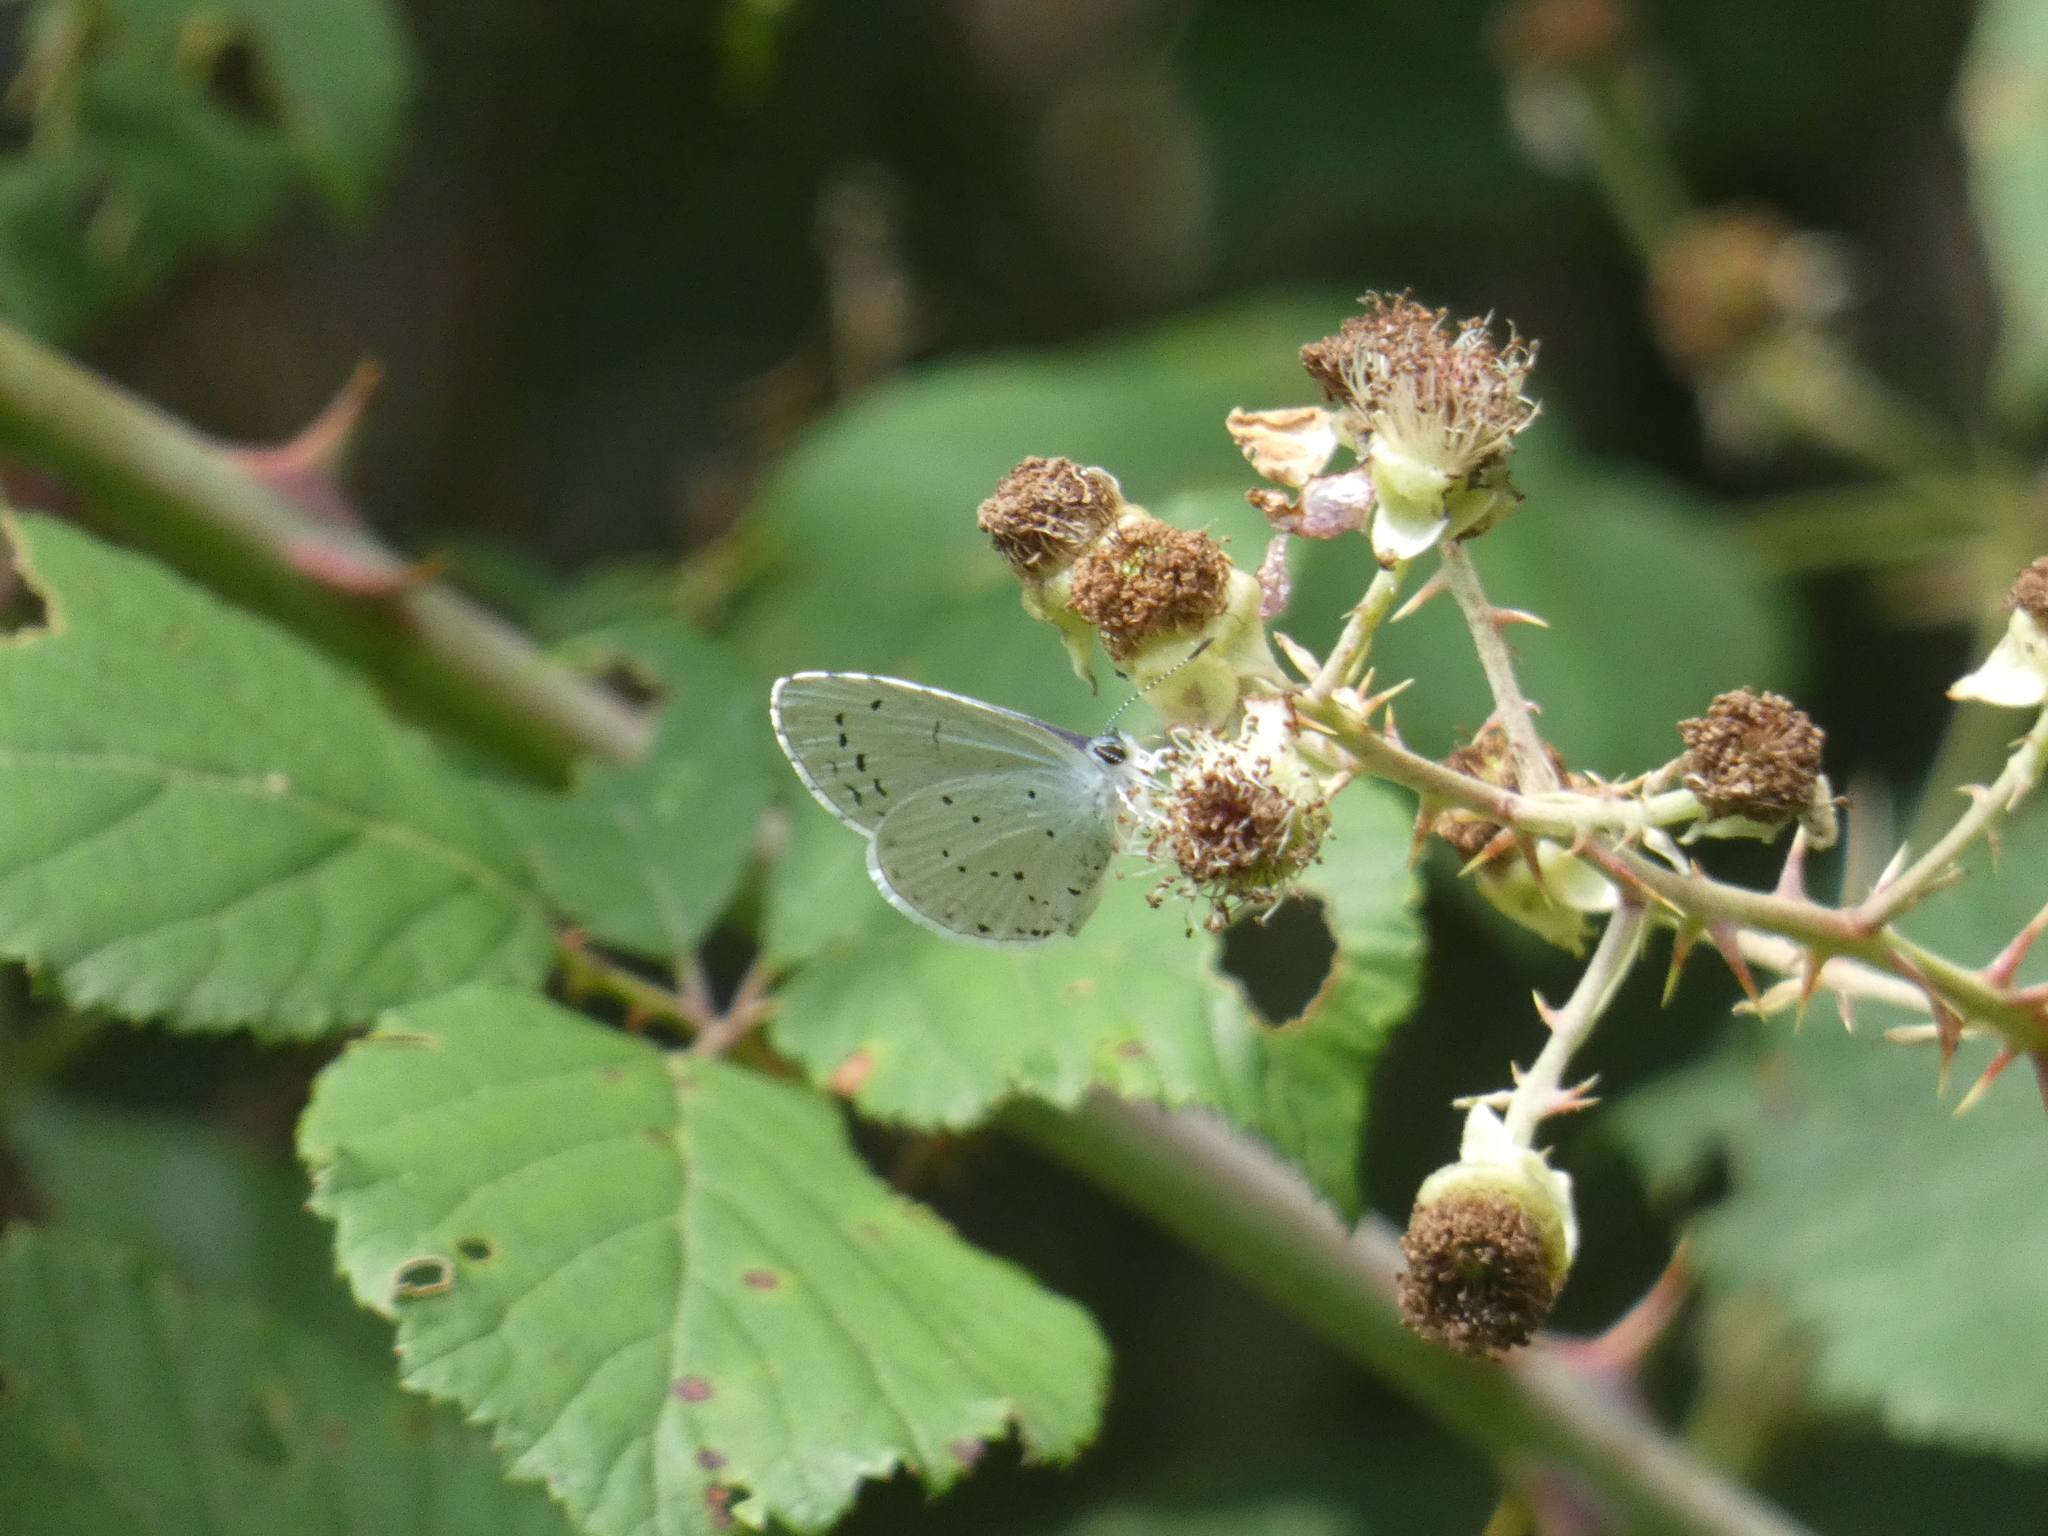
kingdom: Animalia
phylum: Arthropoda
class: Insecta
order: Lepidoptera
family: Lycaenidae
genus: Celastrina
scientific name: Celastrina argiolus
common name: Holly blue
